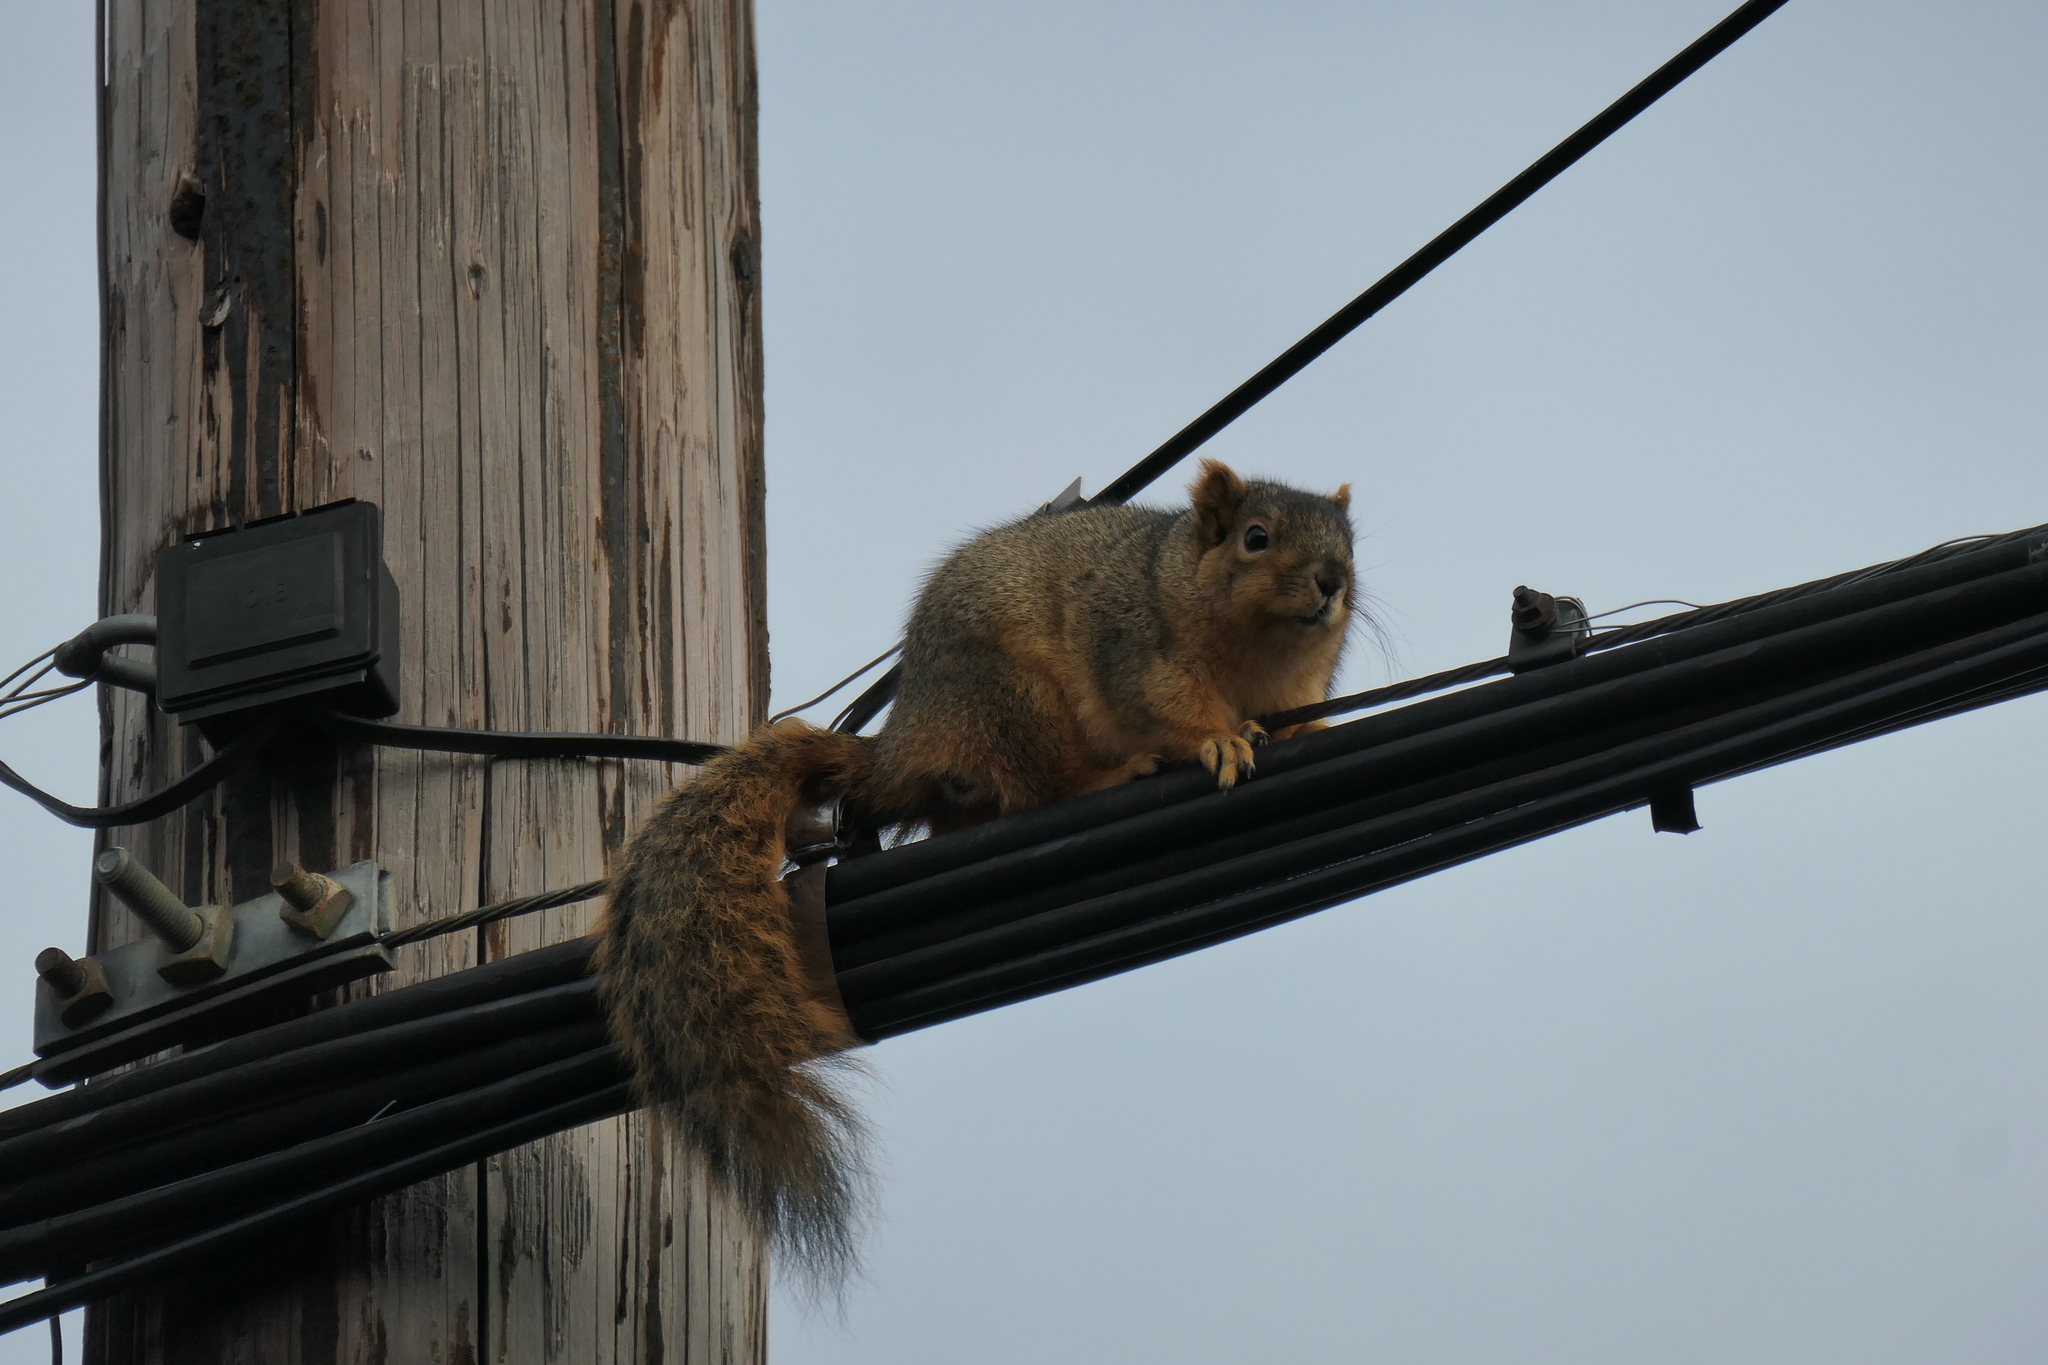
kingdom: Animalia
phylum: Chordata
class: Mammalia
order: Rodentia
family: Sciuridae
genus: Sciurus
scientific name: Sciurus niger
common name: Fox squirrel
